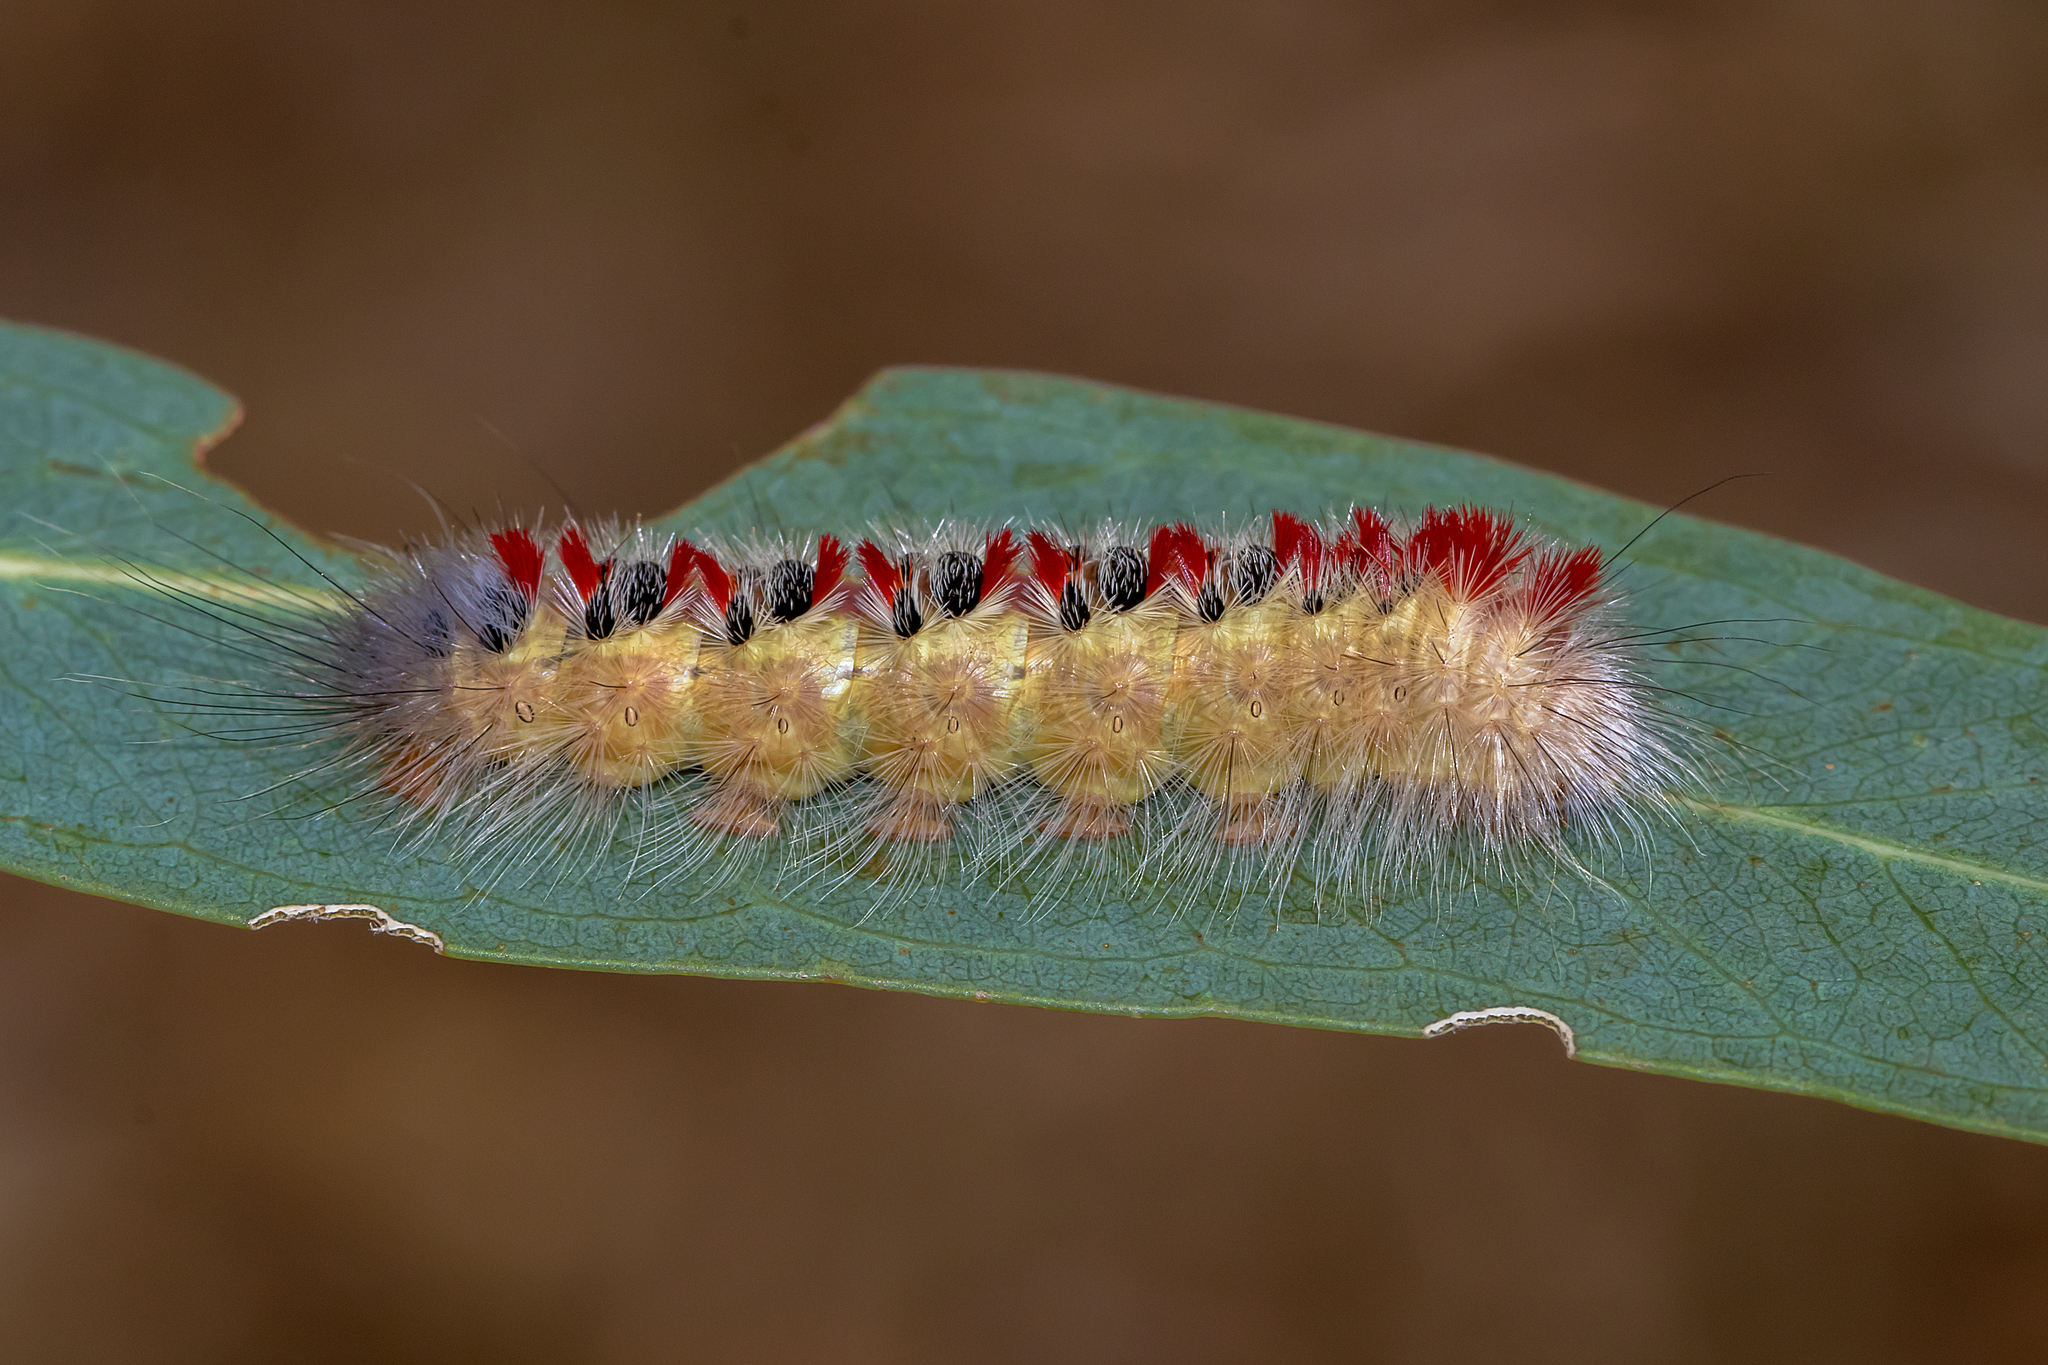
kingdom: Animalia
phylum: Arthropoda
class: Insecta
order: Lepidoptera
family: Notodontidae
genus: Trichiocercus
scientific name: Trichiocercus sparshalli
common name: Long-tailed satin
